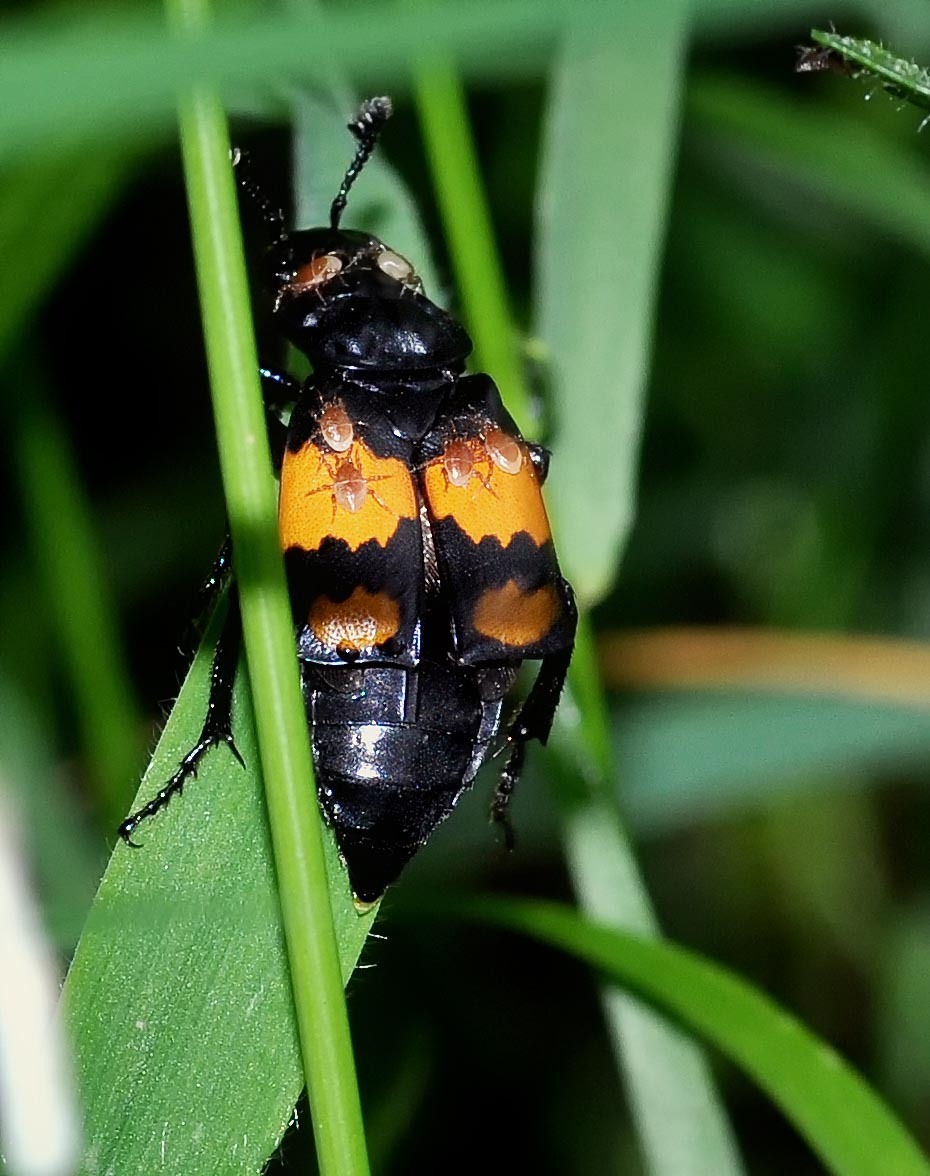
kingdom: Animalia
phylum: Arthropoda
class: Insecta
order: Coleoptera
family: Staphylinidae
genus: Nicrophorus
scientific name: Nicrophorus vespilloides
